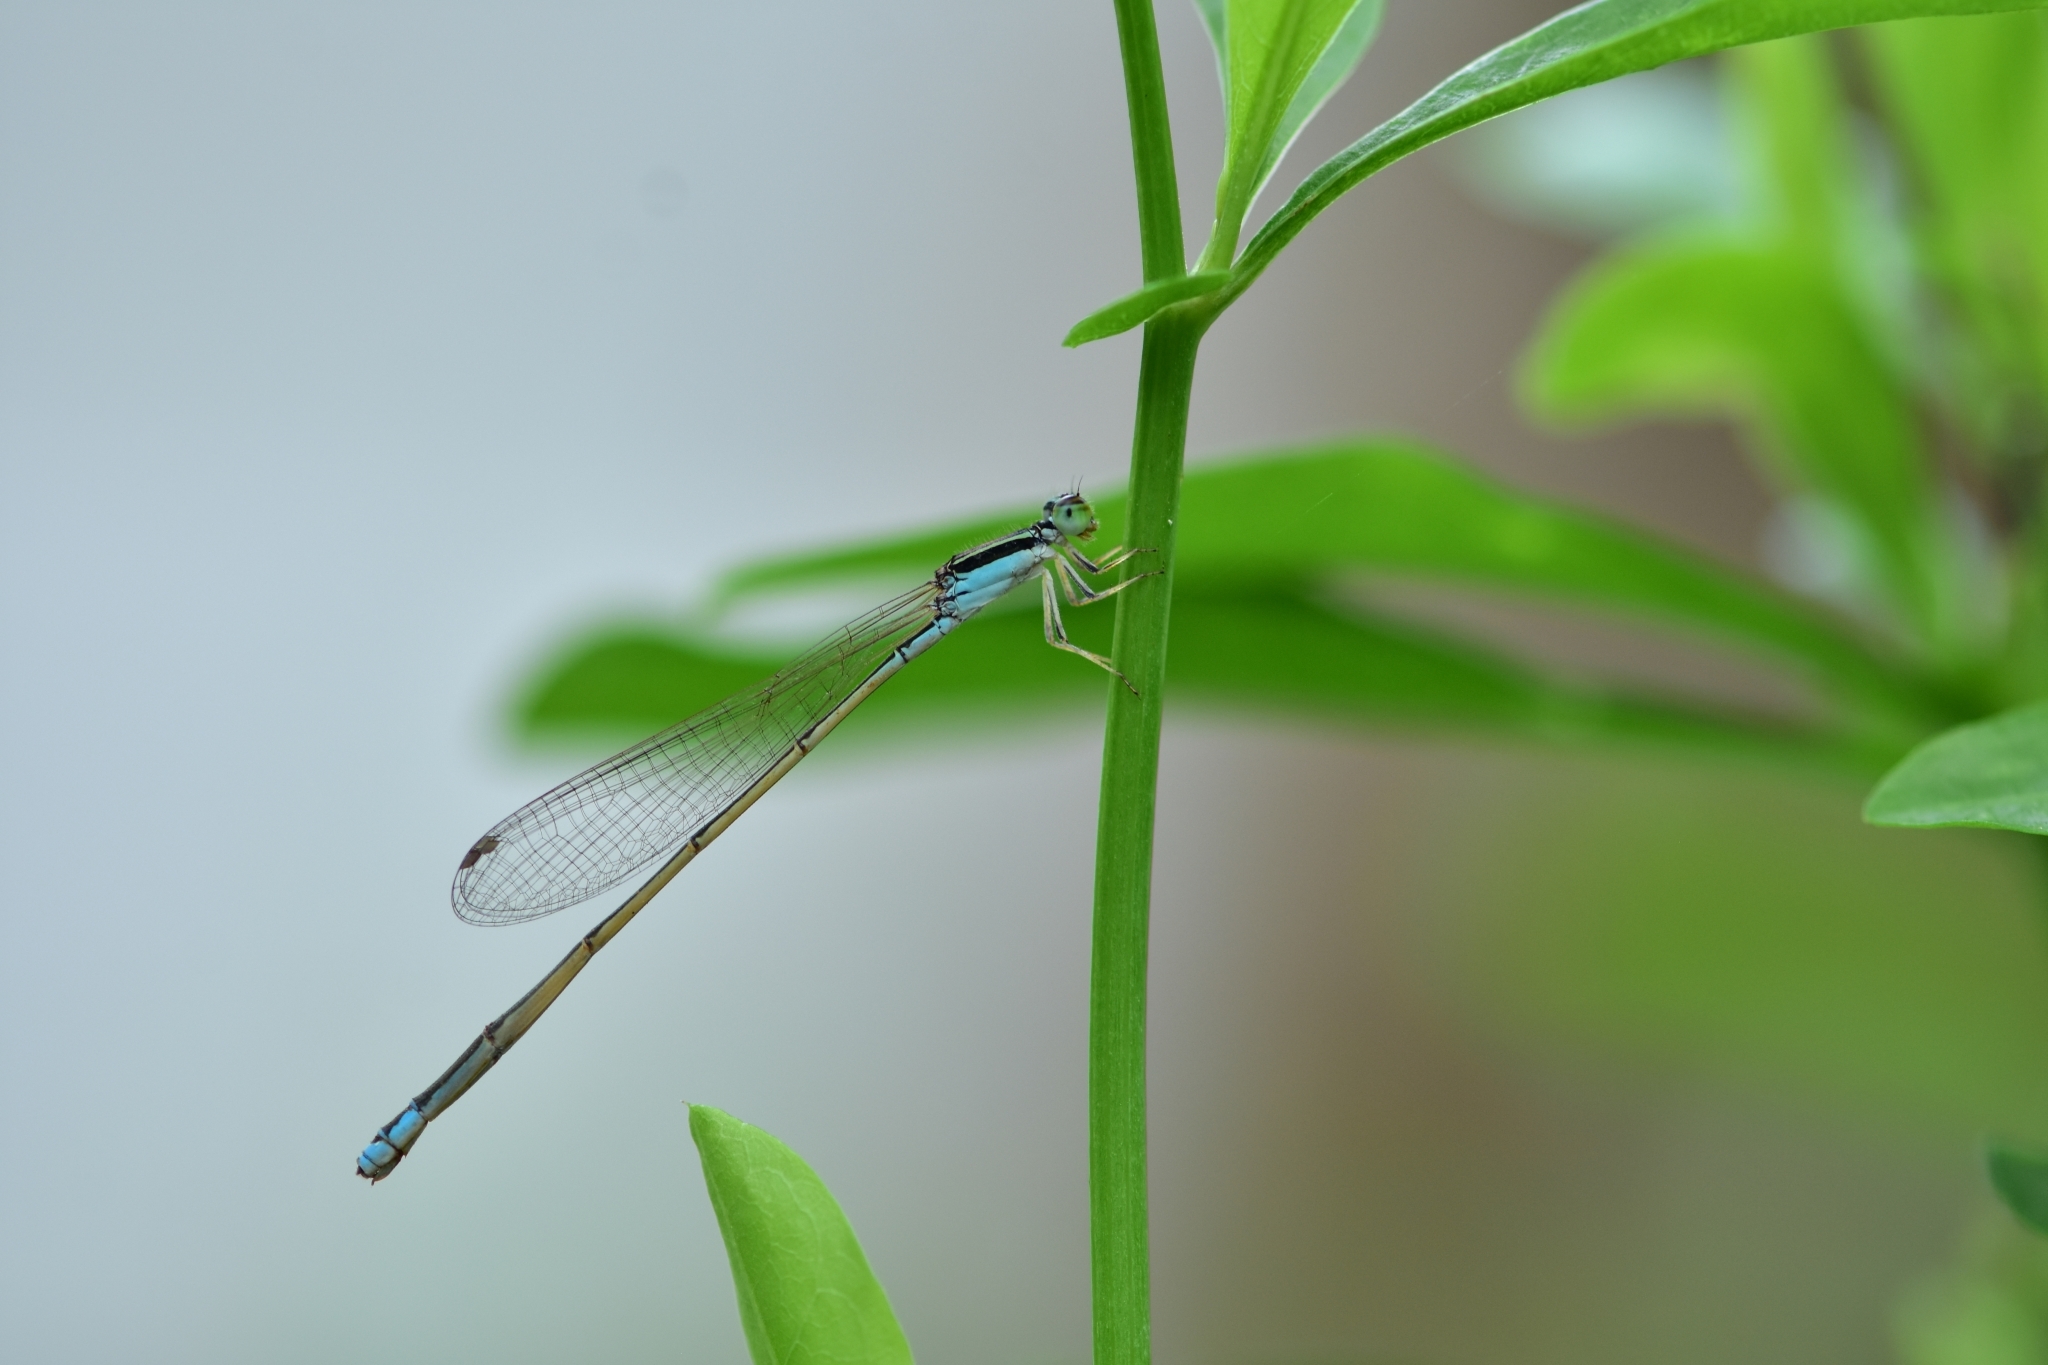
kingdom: Animalia
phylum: Arthropoda
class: Insecta
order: Odonata
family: Coenagrionidae
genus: Aciagrion
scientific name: Aciagrion occidentale
